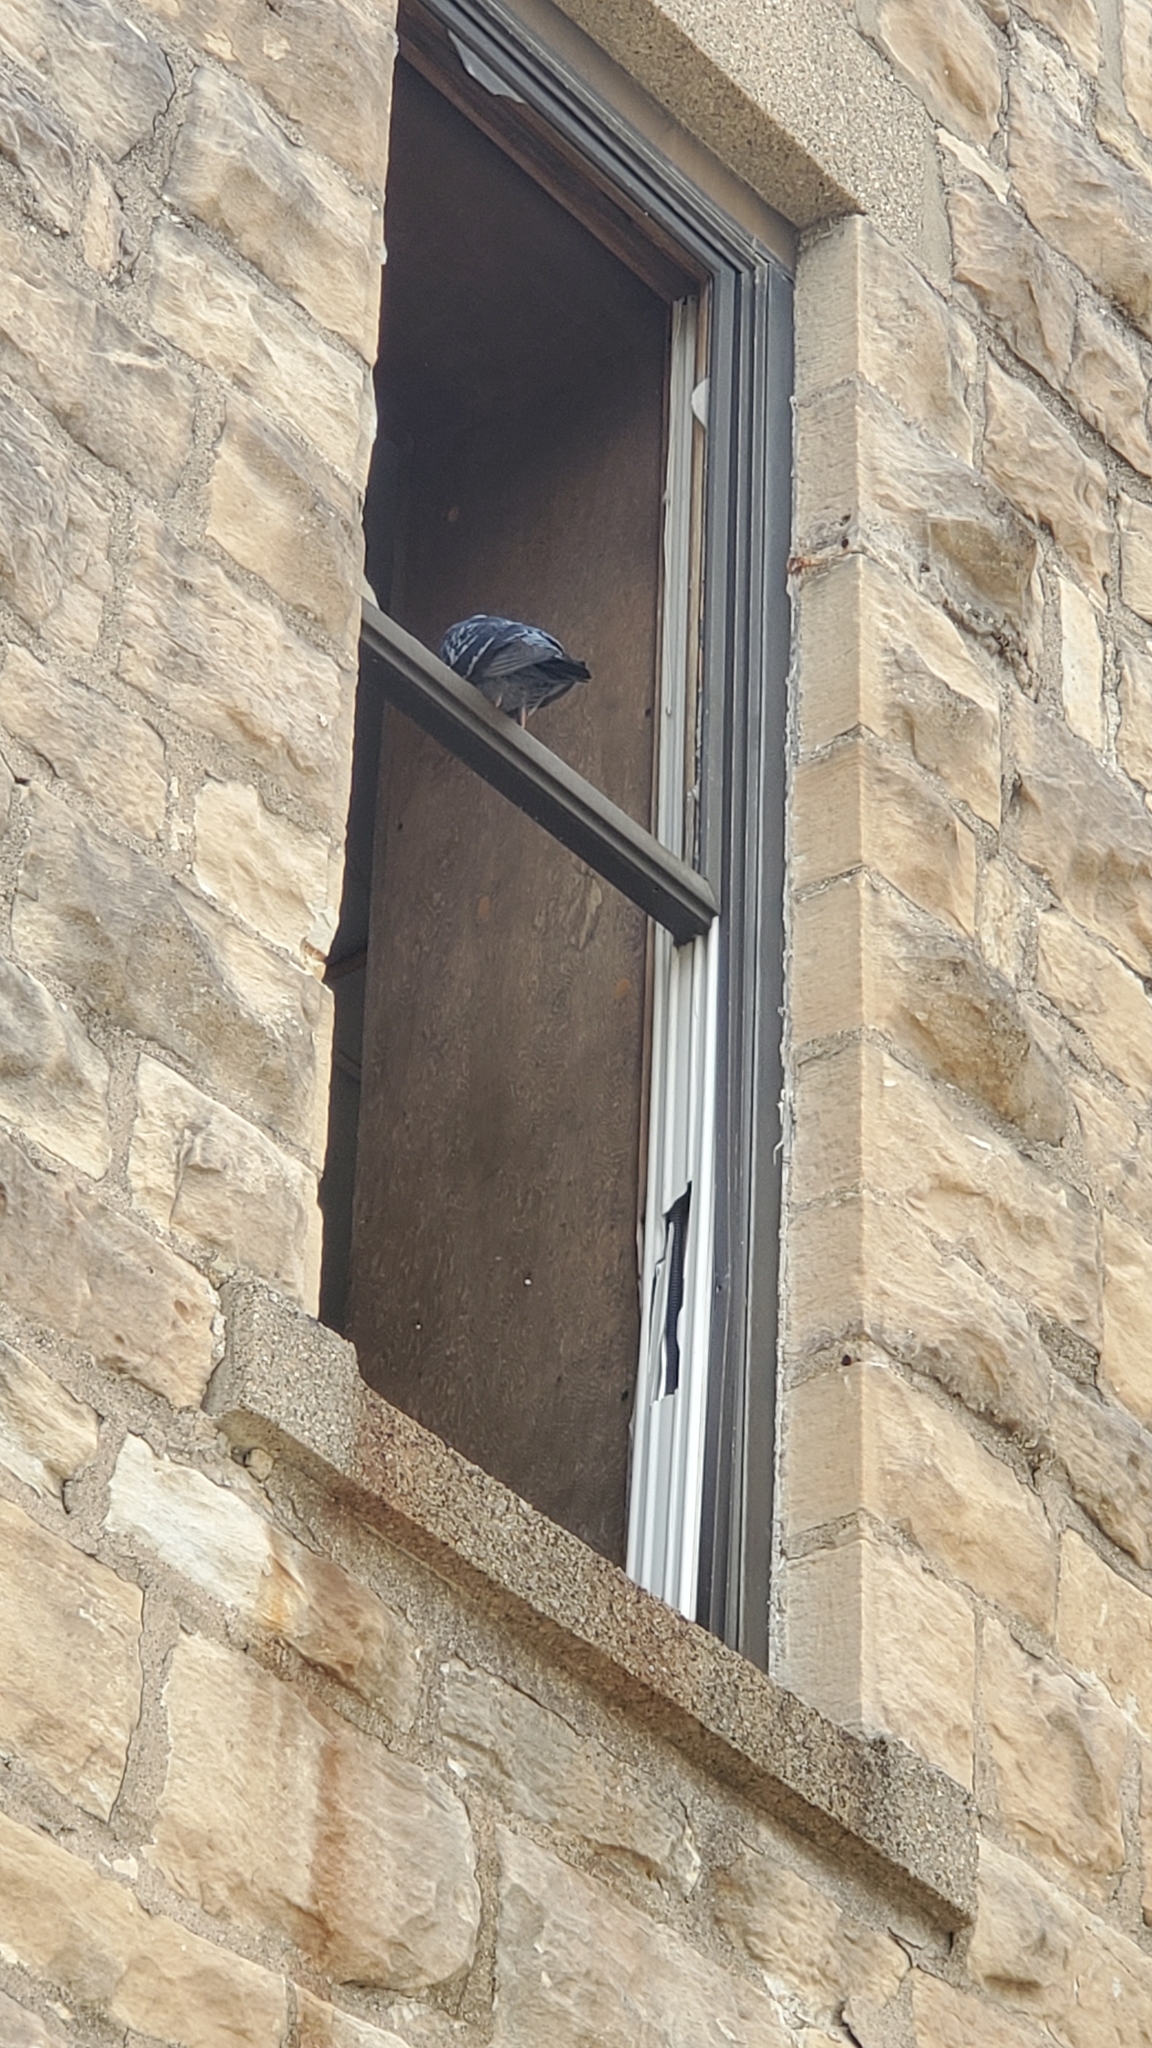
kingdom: Animalia
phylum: Chordata
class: Aves
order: Columbiformes
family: Columbidae
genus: Columba
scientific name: Columba livia
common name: Rock pigeon
